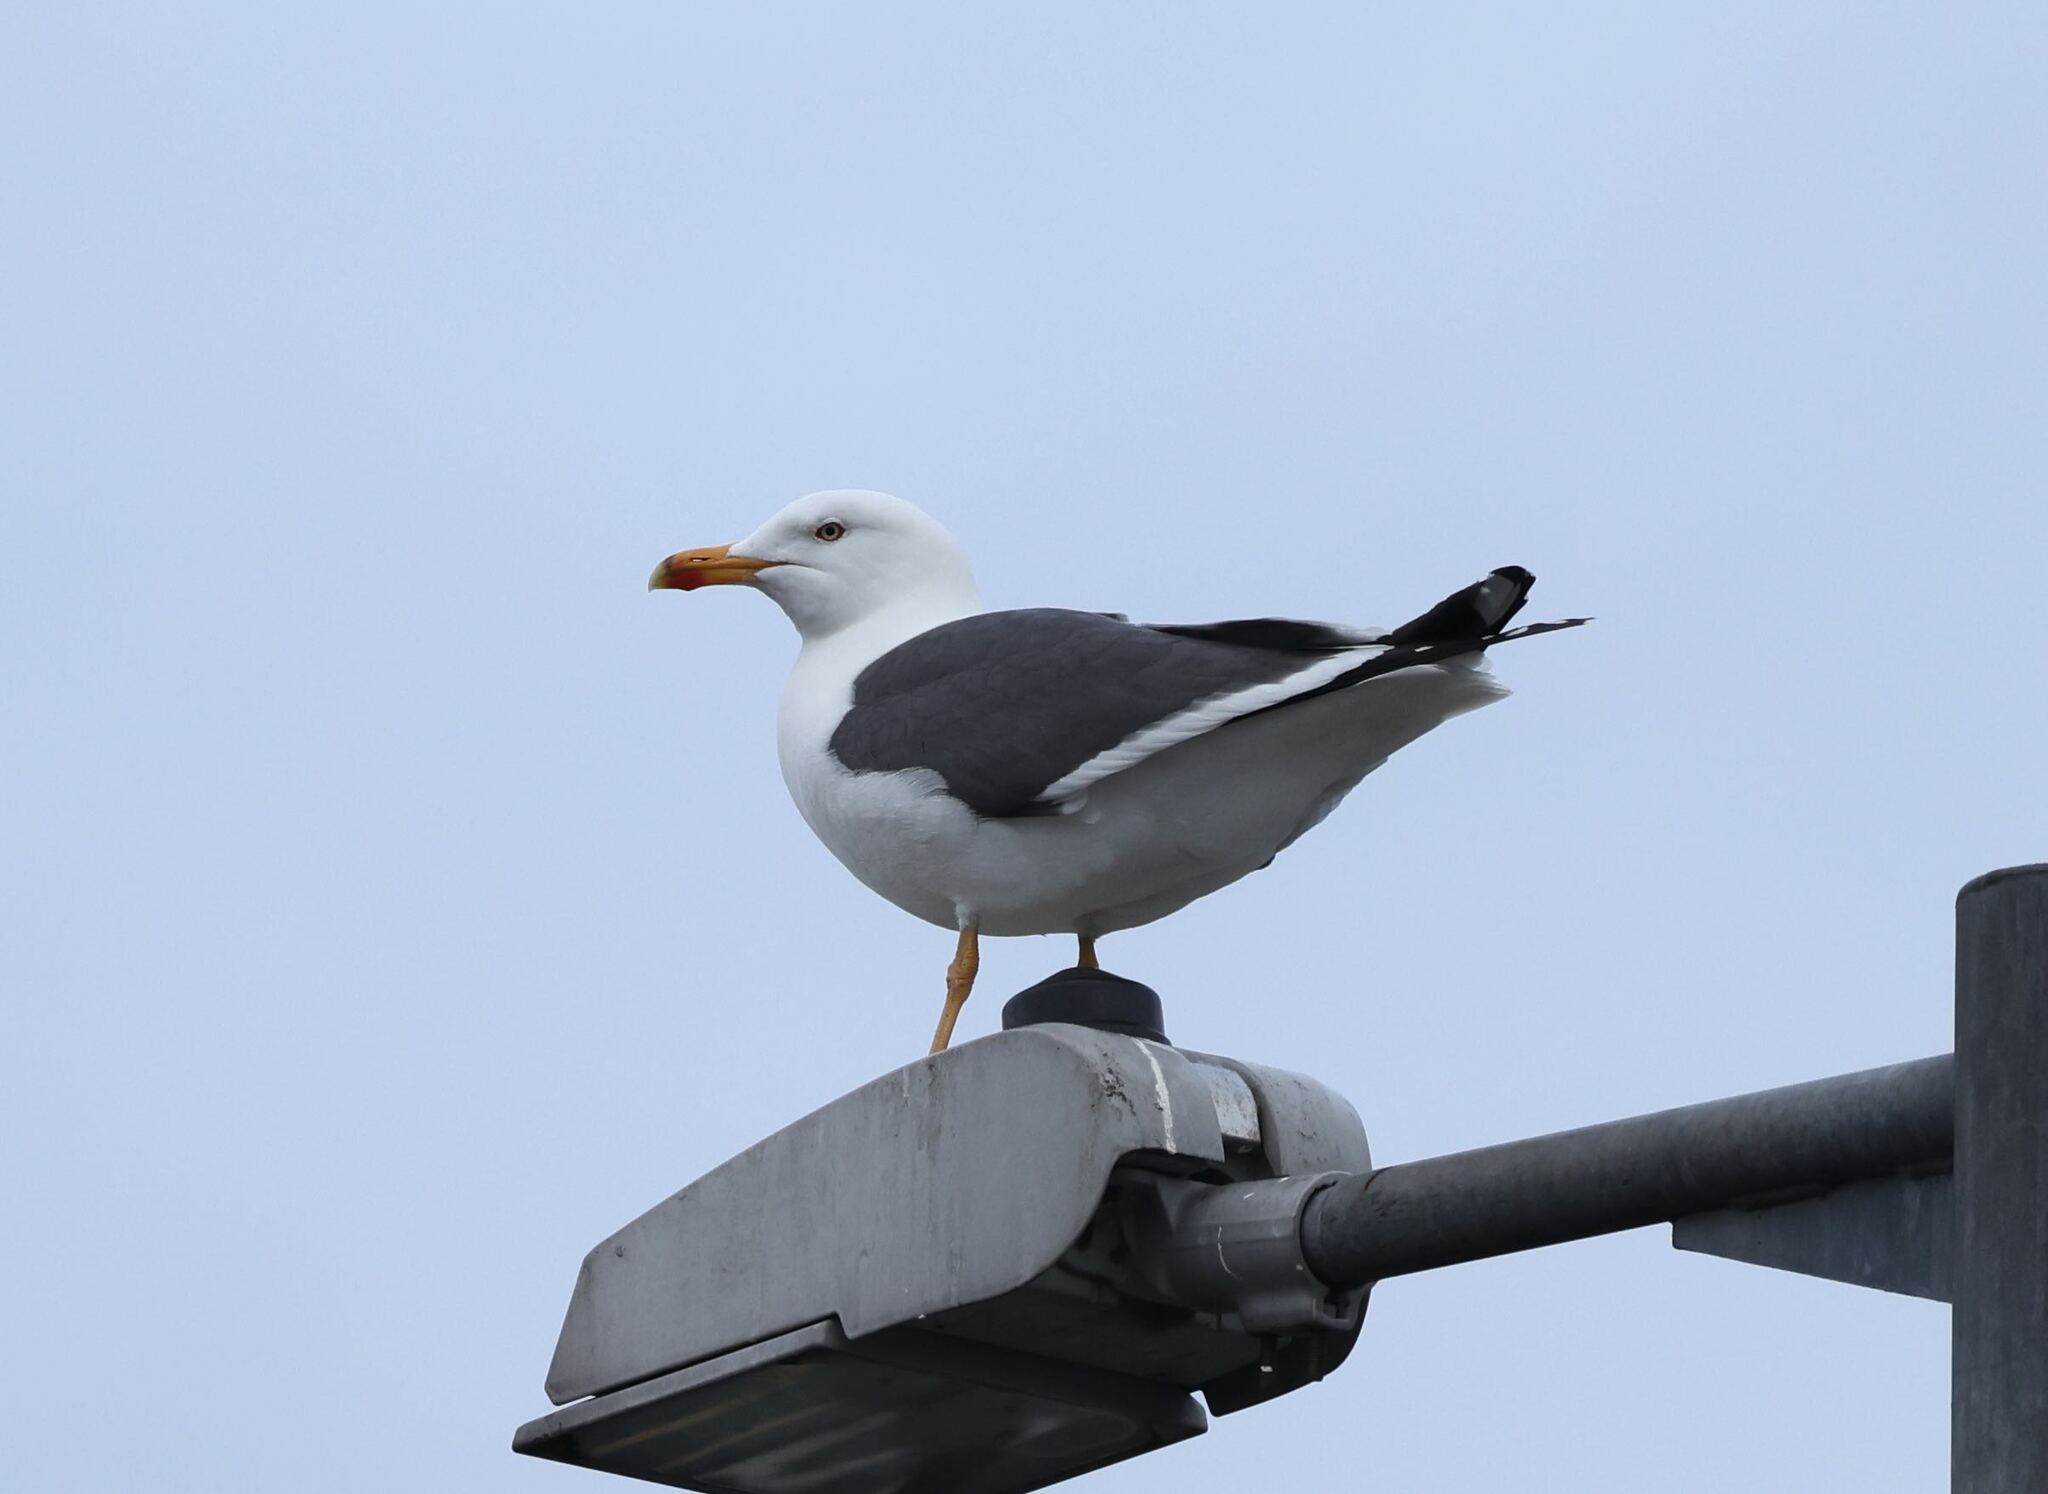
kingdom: Animalia
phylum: Chordata
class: Aves
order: Charadriiformes
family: Laridae
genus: Larus
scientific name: Larus fuscus
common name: Lesser black-backed gull
